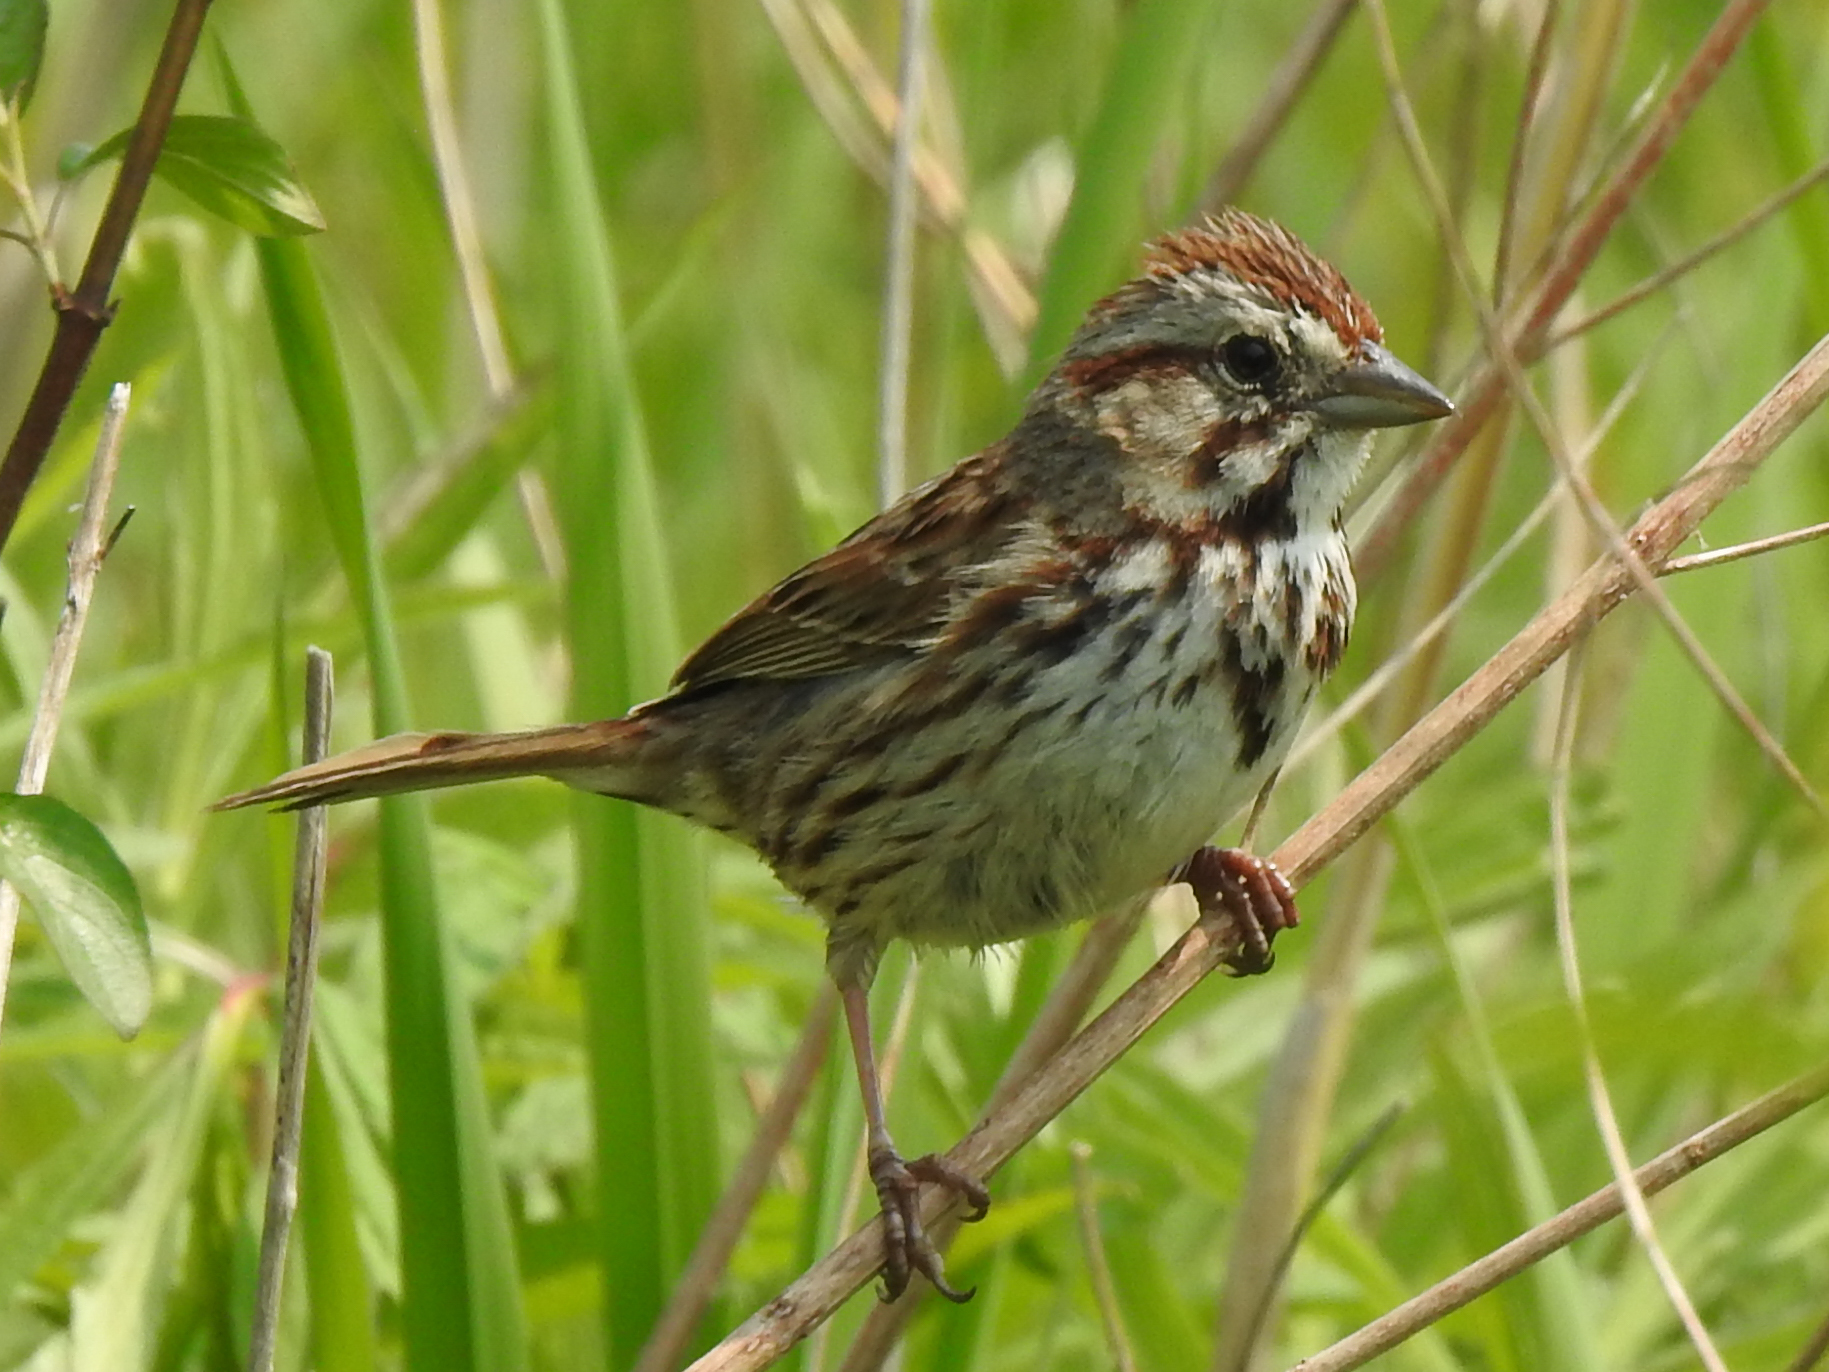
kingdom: Animalia
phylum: Chordata
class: Aves
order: Passeriformes
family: Passerellidae
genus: Melospiza
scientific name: Melospiza melodia
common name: Song sparrow
